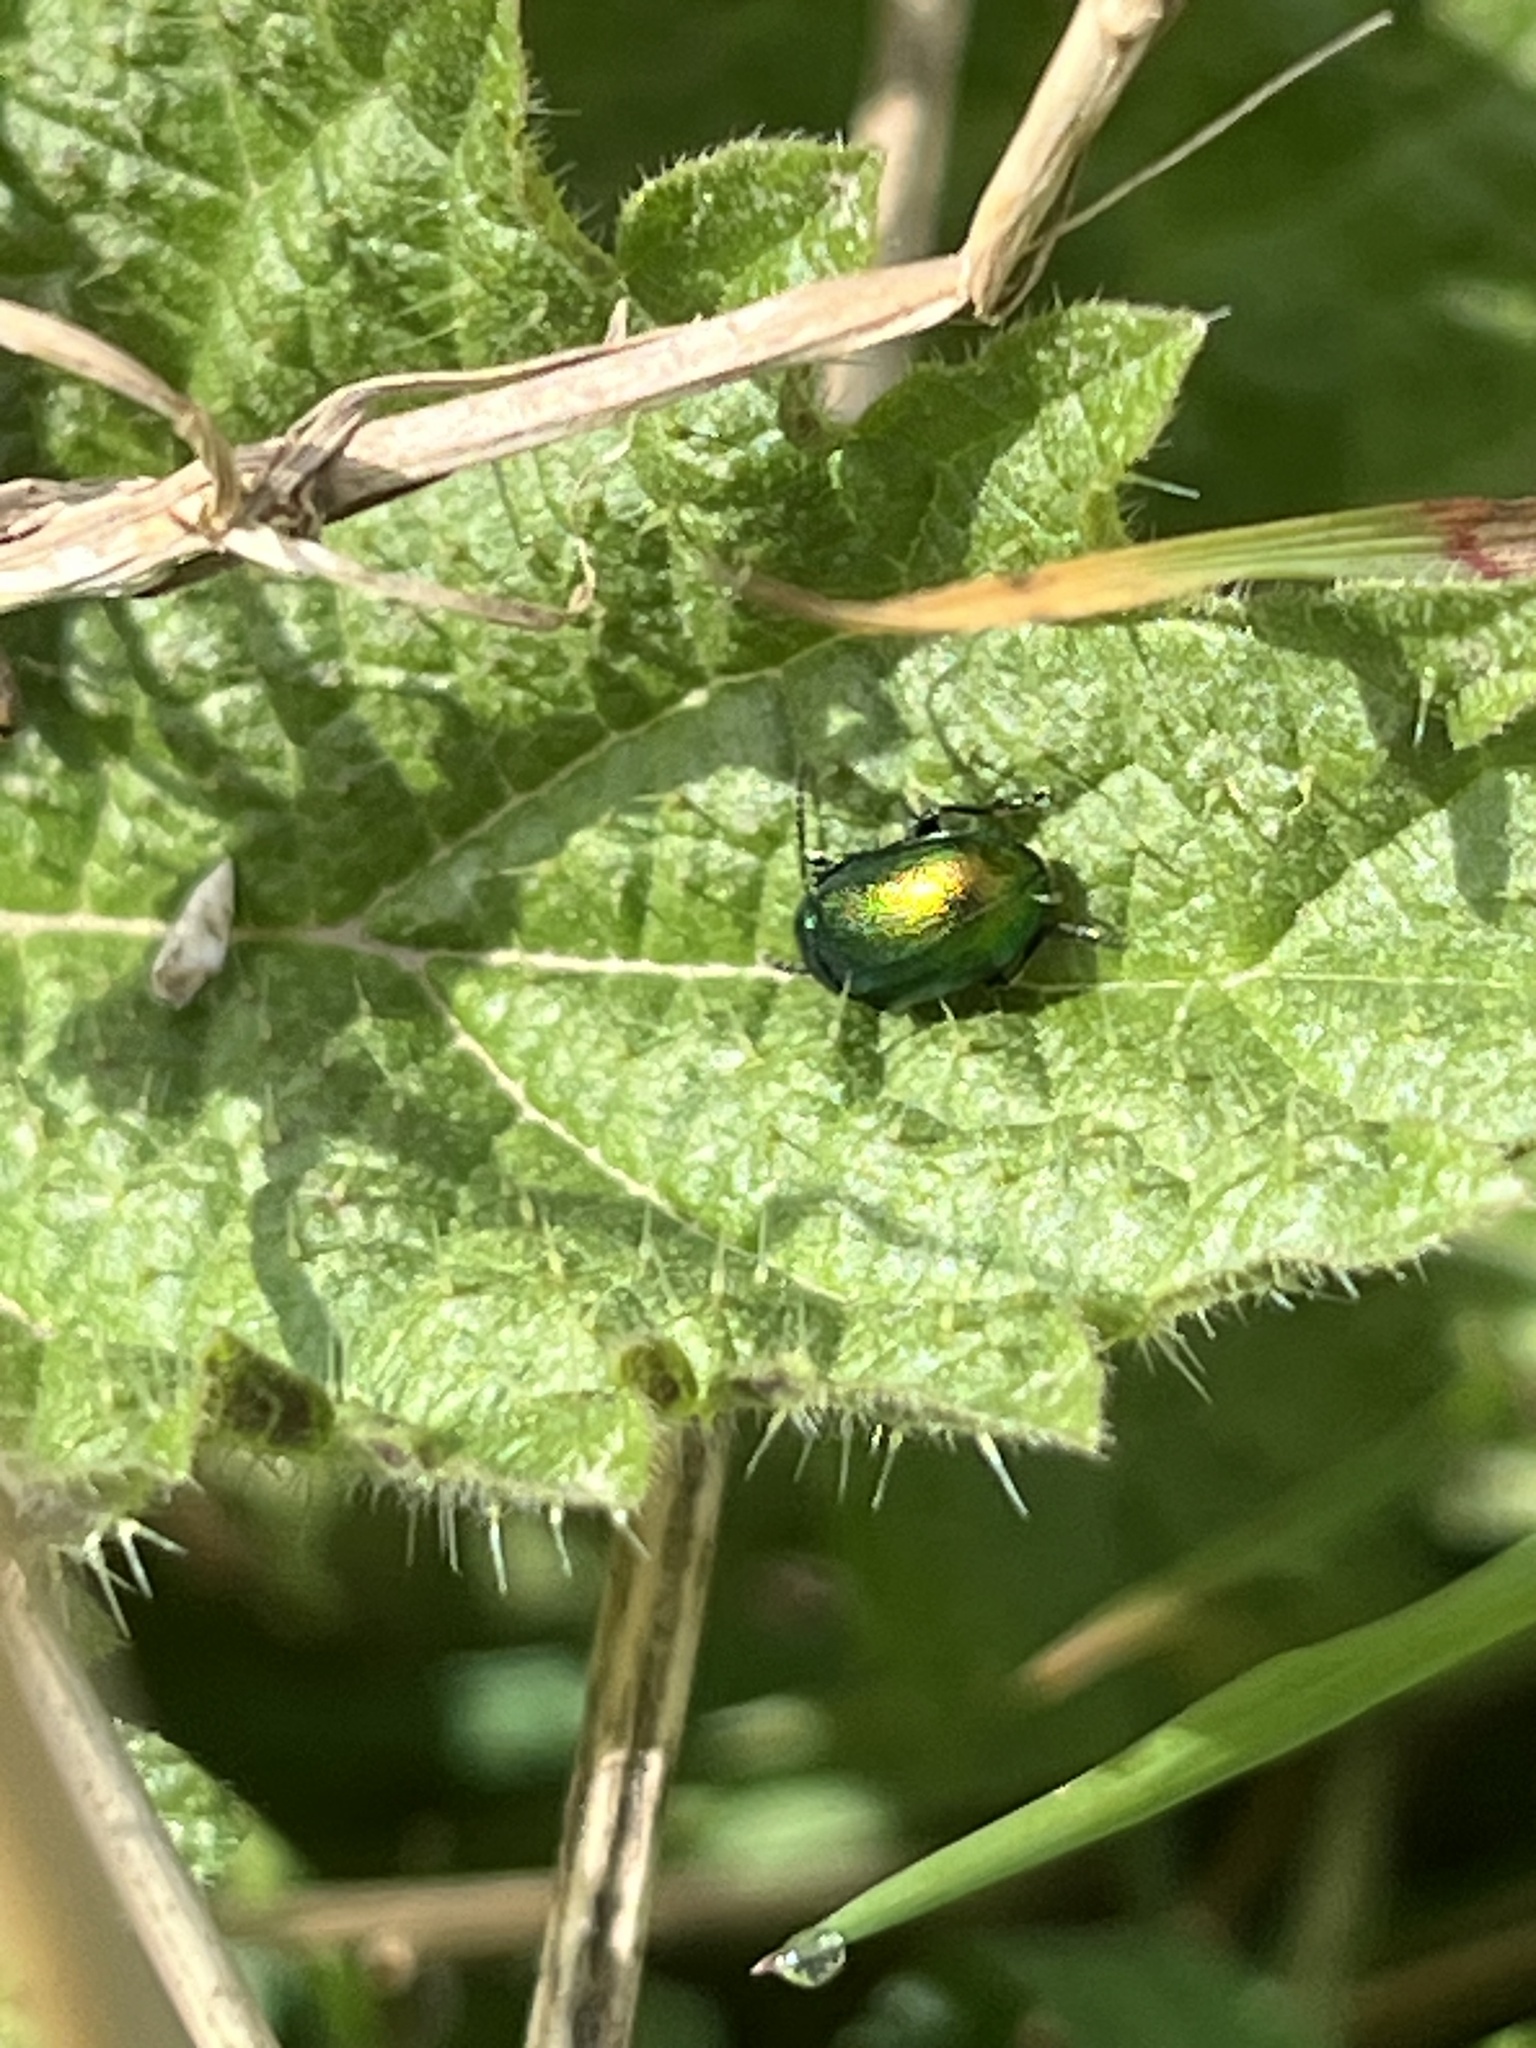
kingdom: Animalia
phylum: Arthropoda
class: Insecta
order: Coleoptera
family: Chrysomelidae
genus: Chrysolina
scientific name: Chrysolina graminis
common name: Tansey beetle
